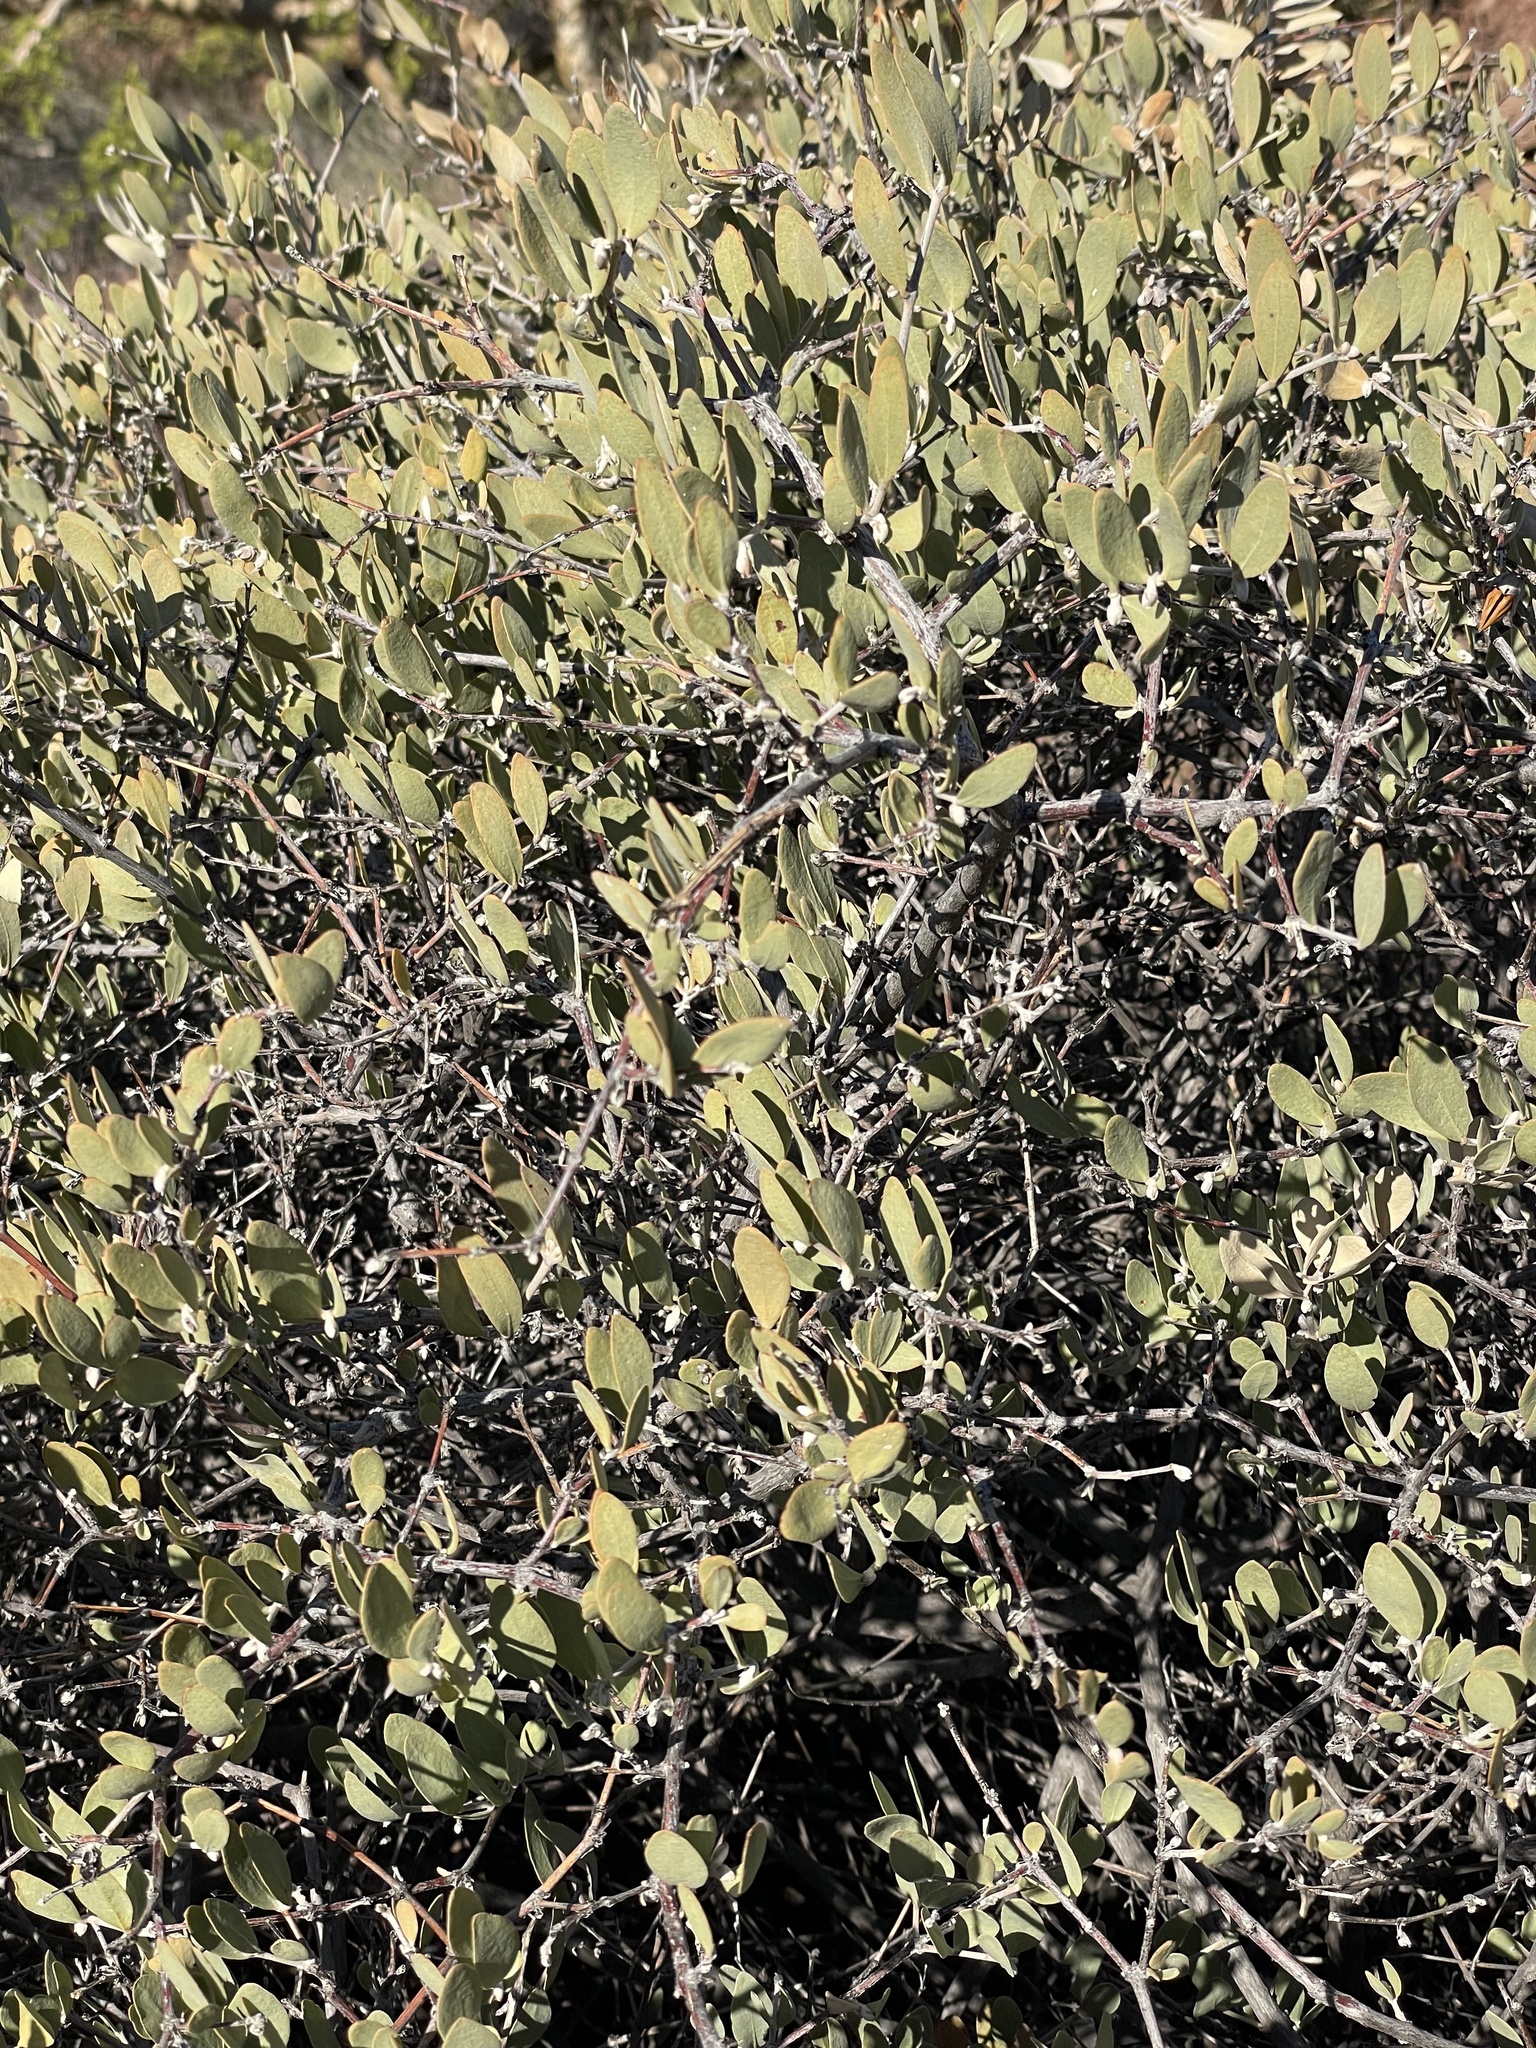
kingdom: Plantae
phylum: Tracheophyta
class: Magnoliopsida
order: Caryophyllales
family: Simmondsiaceae
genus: Simmondsia
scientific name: Simmondsia chinensis
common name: Jojoba
